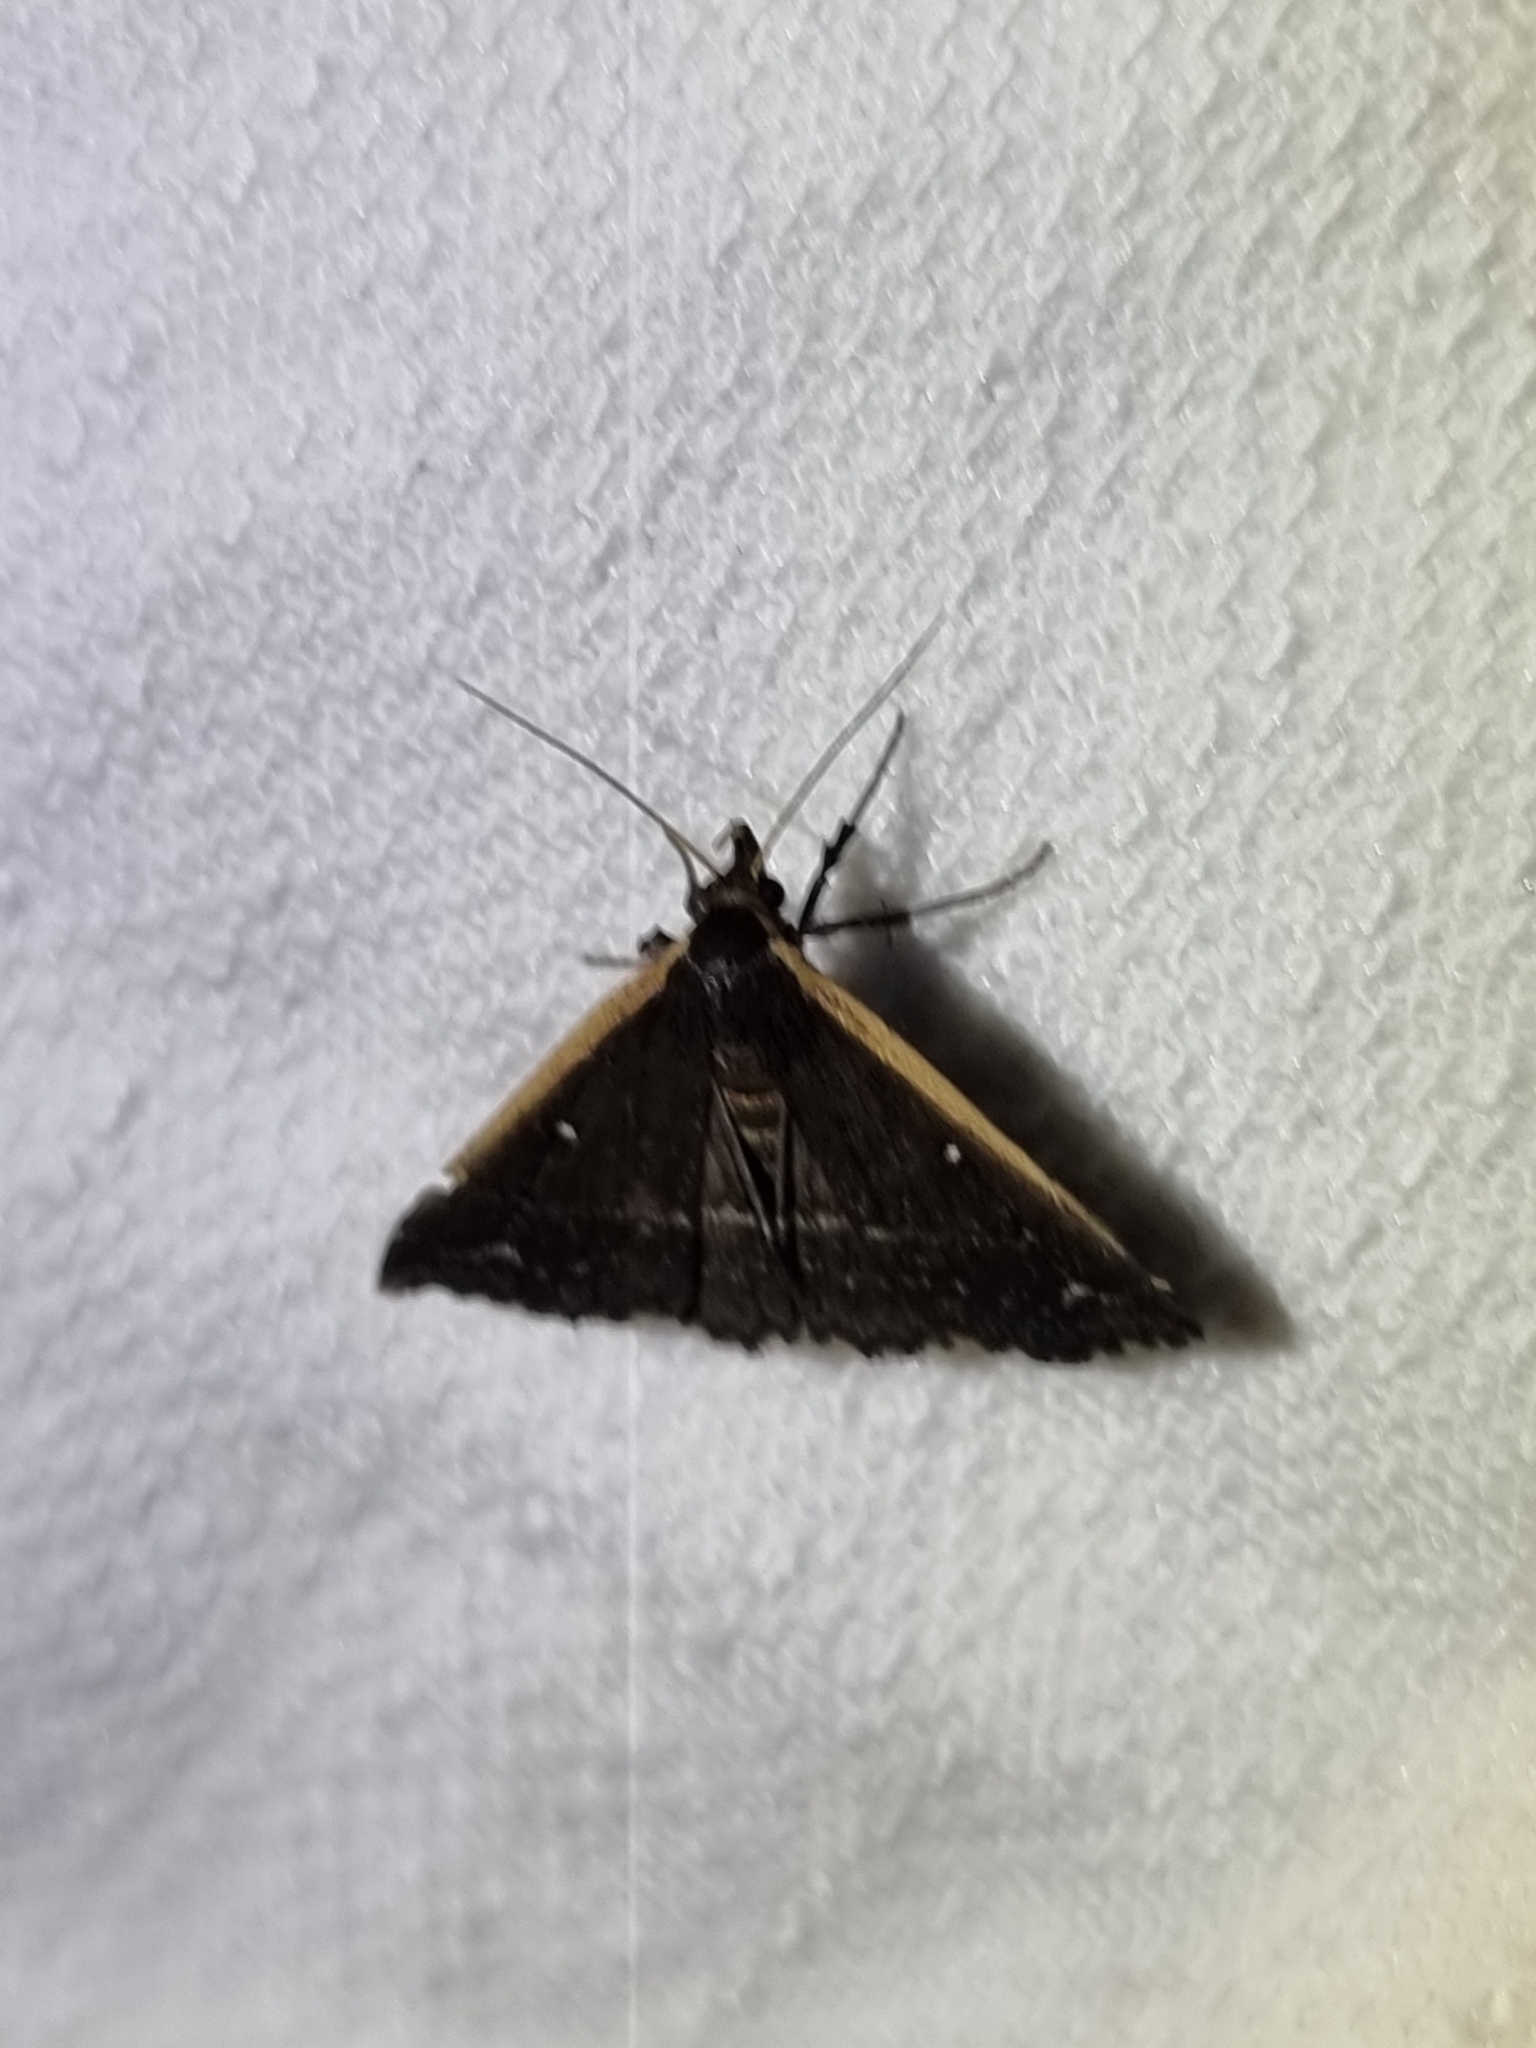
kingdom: Animalia
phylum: Arthropoda
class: Insecta
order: Lepidoptera
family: Erebidae
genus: Adrapsa
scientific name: Adrapsa ablualis
